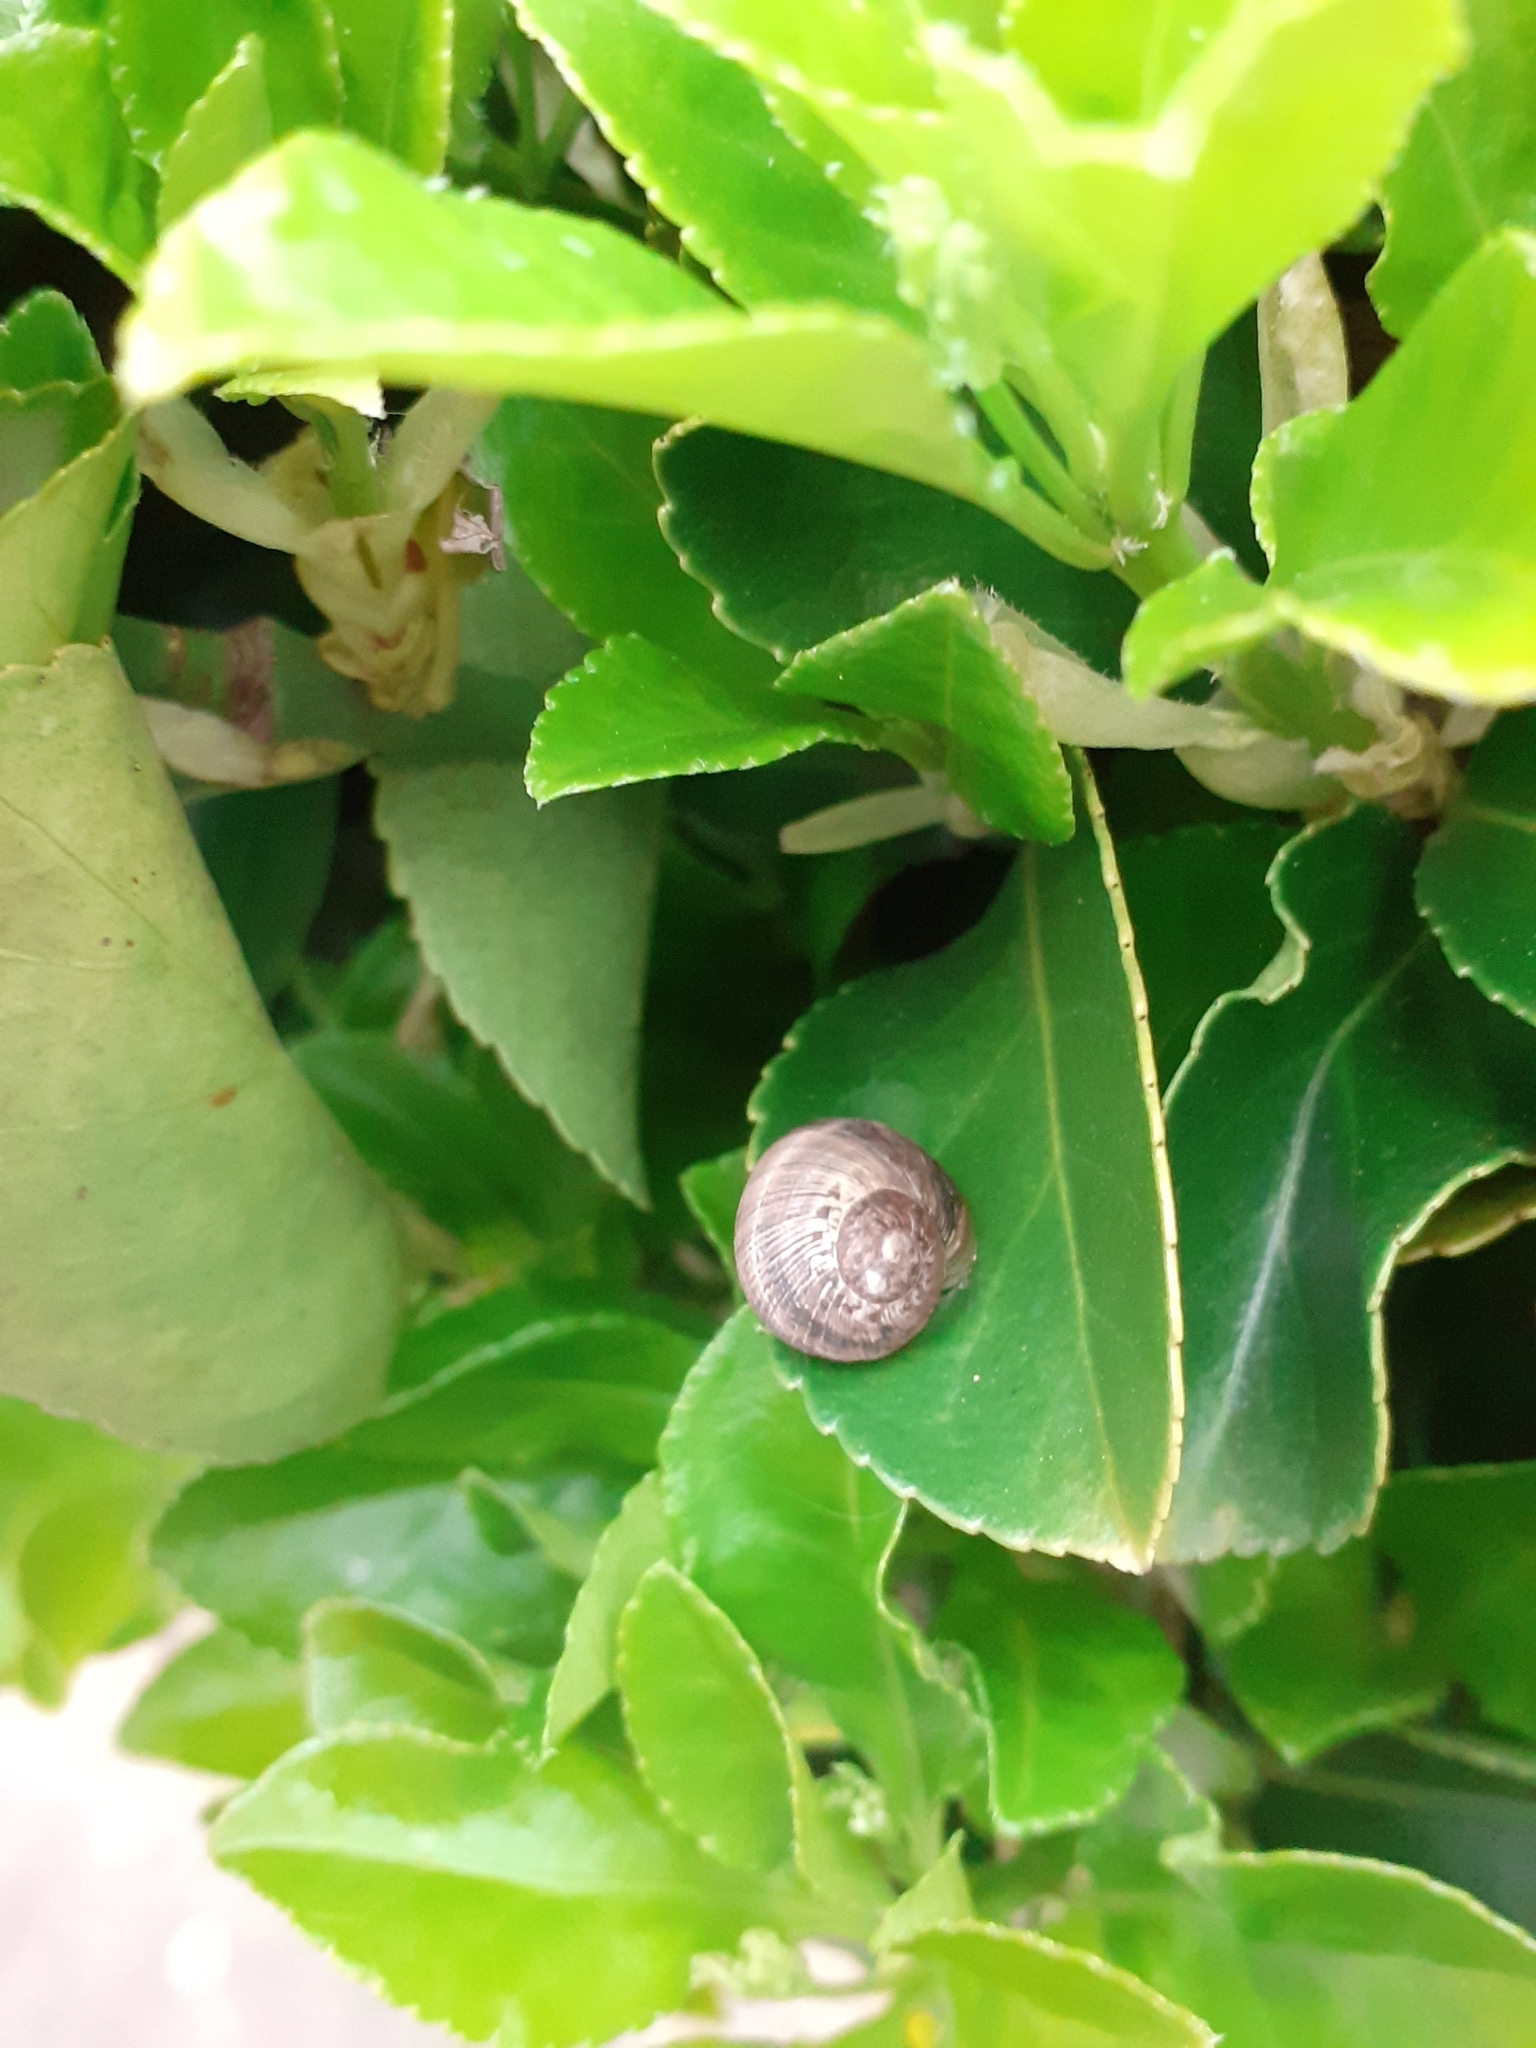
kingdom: Animalia
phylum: Mollusca
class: Gastropoda
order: Stylommatophora
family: Helicidae
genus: Cornu
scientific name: Cornu aspersum
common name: Brown garden snail
